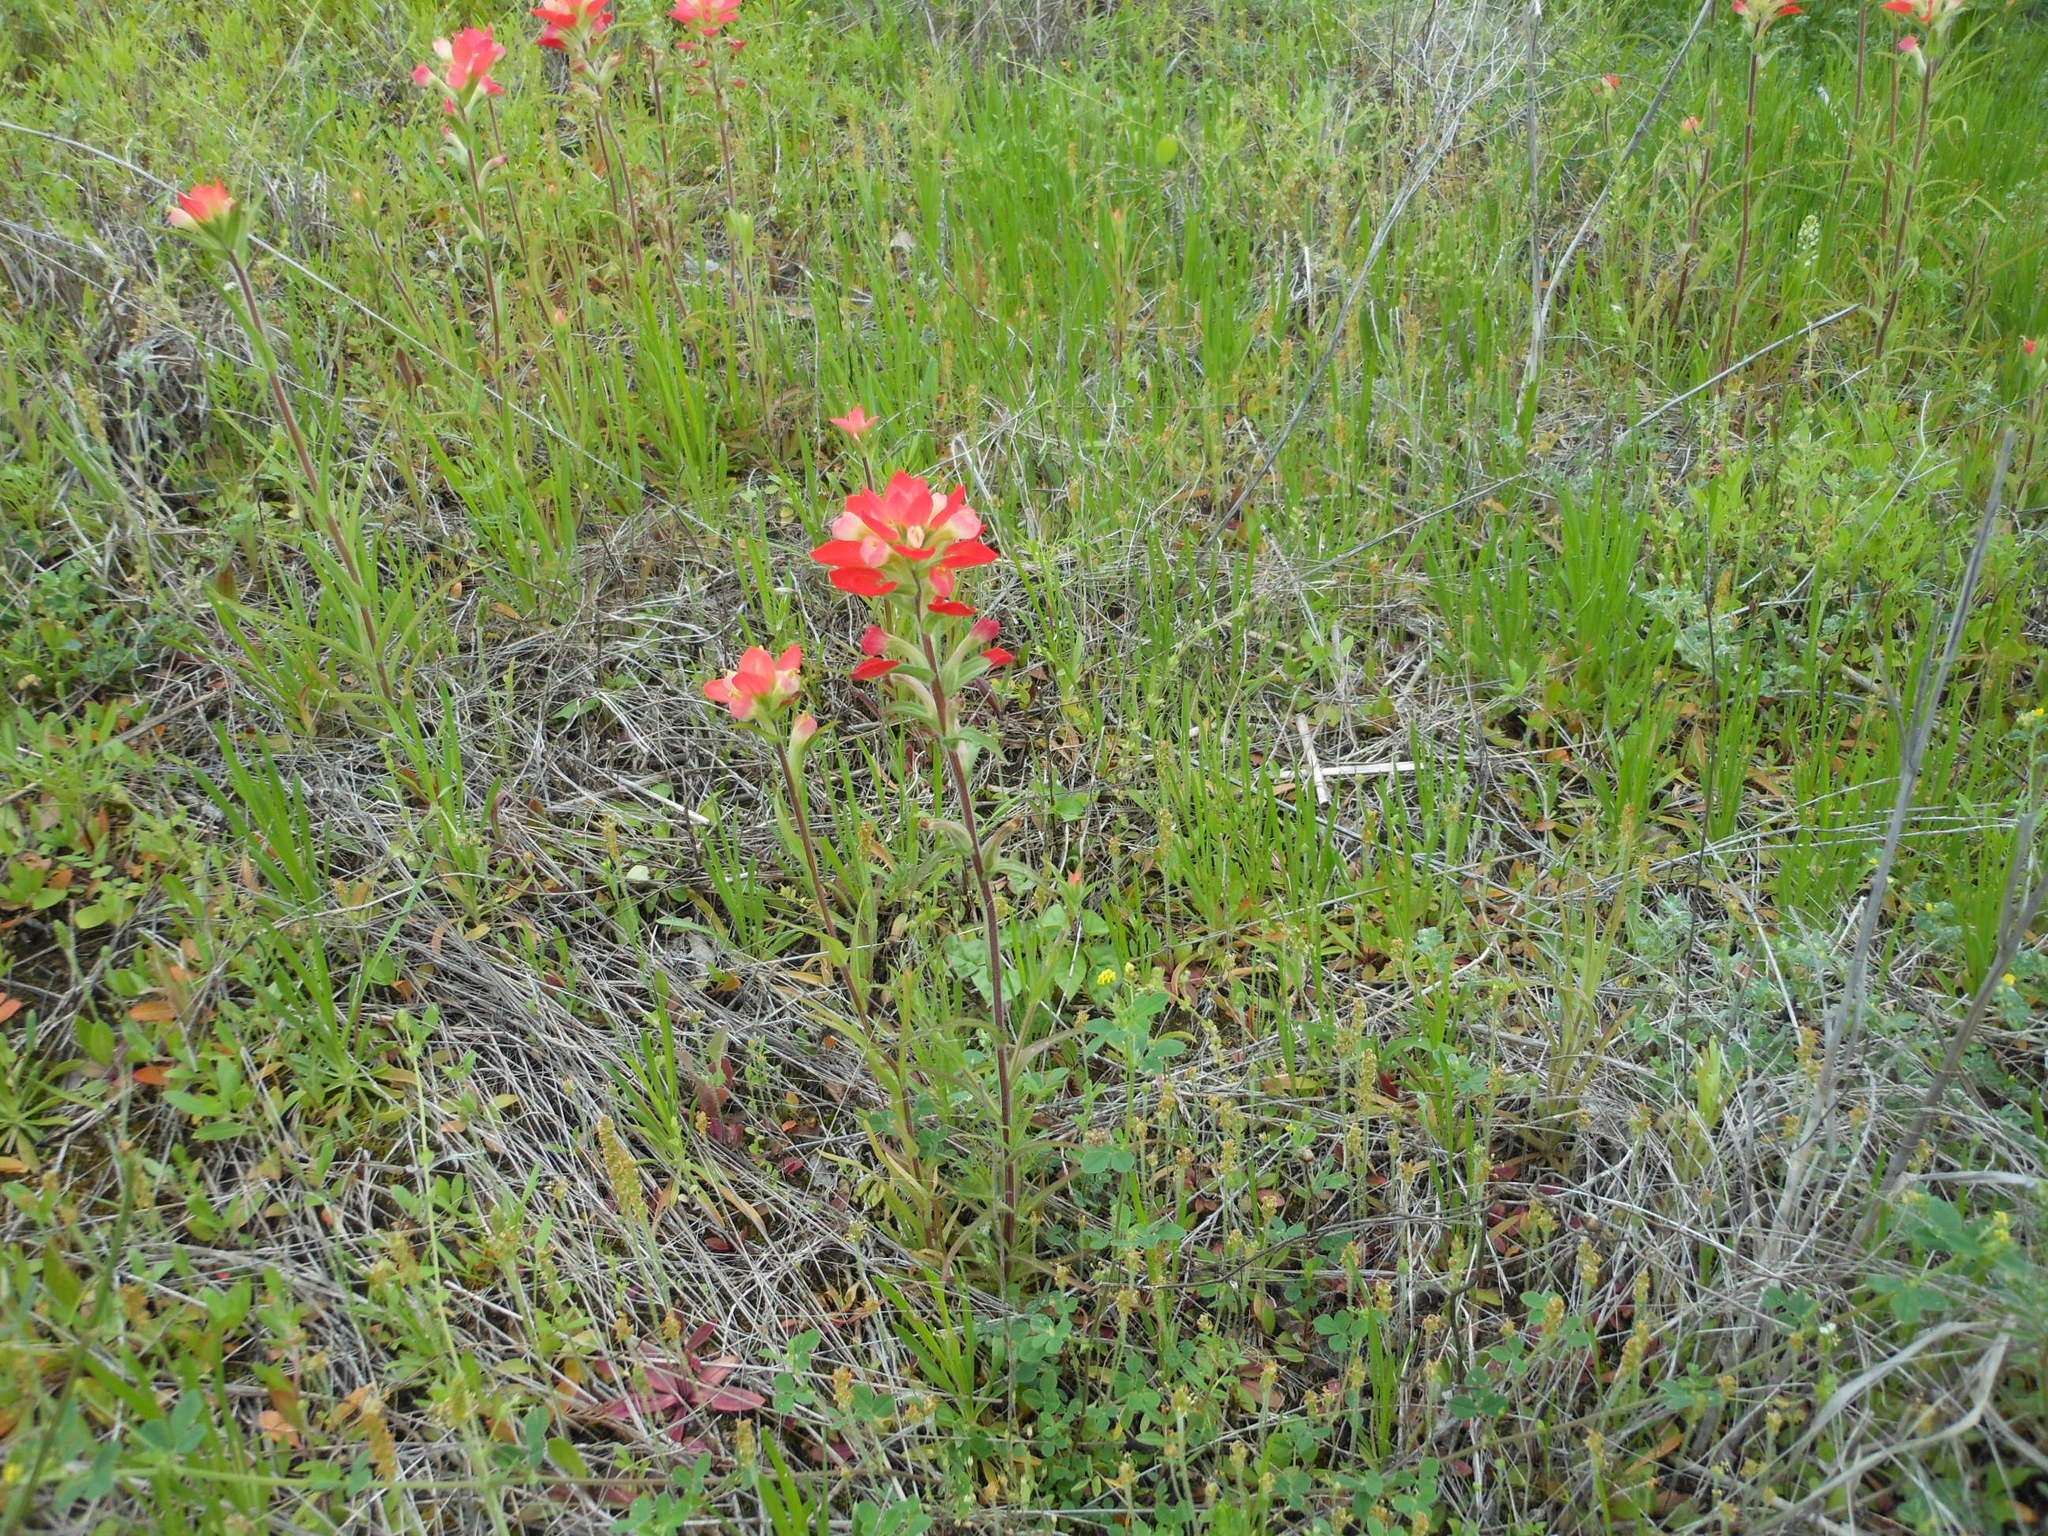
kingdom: Plantae
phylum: Tracheophyta
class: Magnoliopsida
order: Lamiales
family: Orobanchaceae
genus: Castilleja
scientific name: Castilleja indivisa
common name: Texas paintbrush
